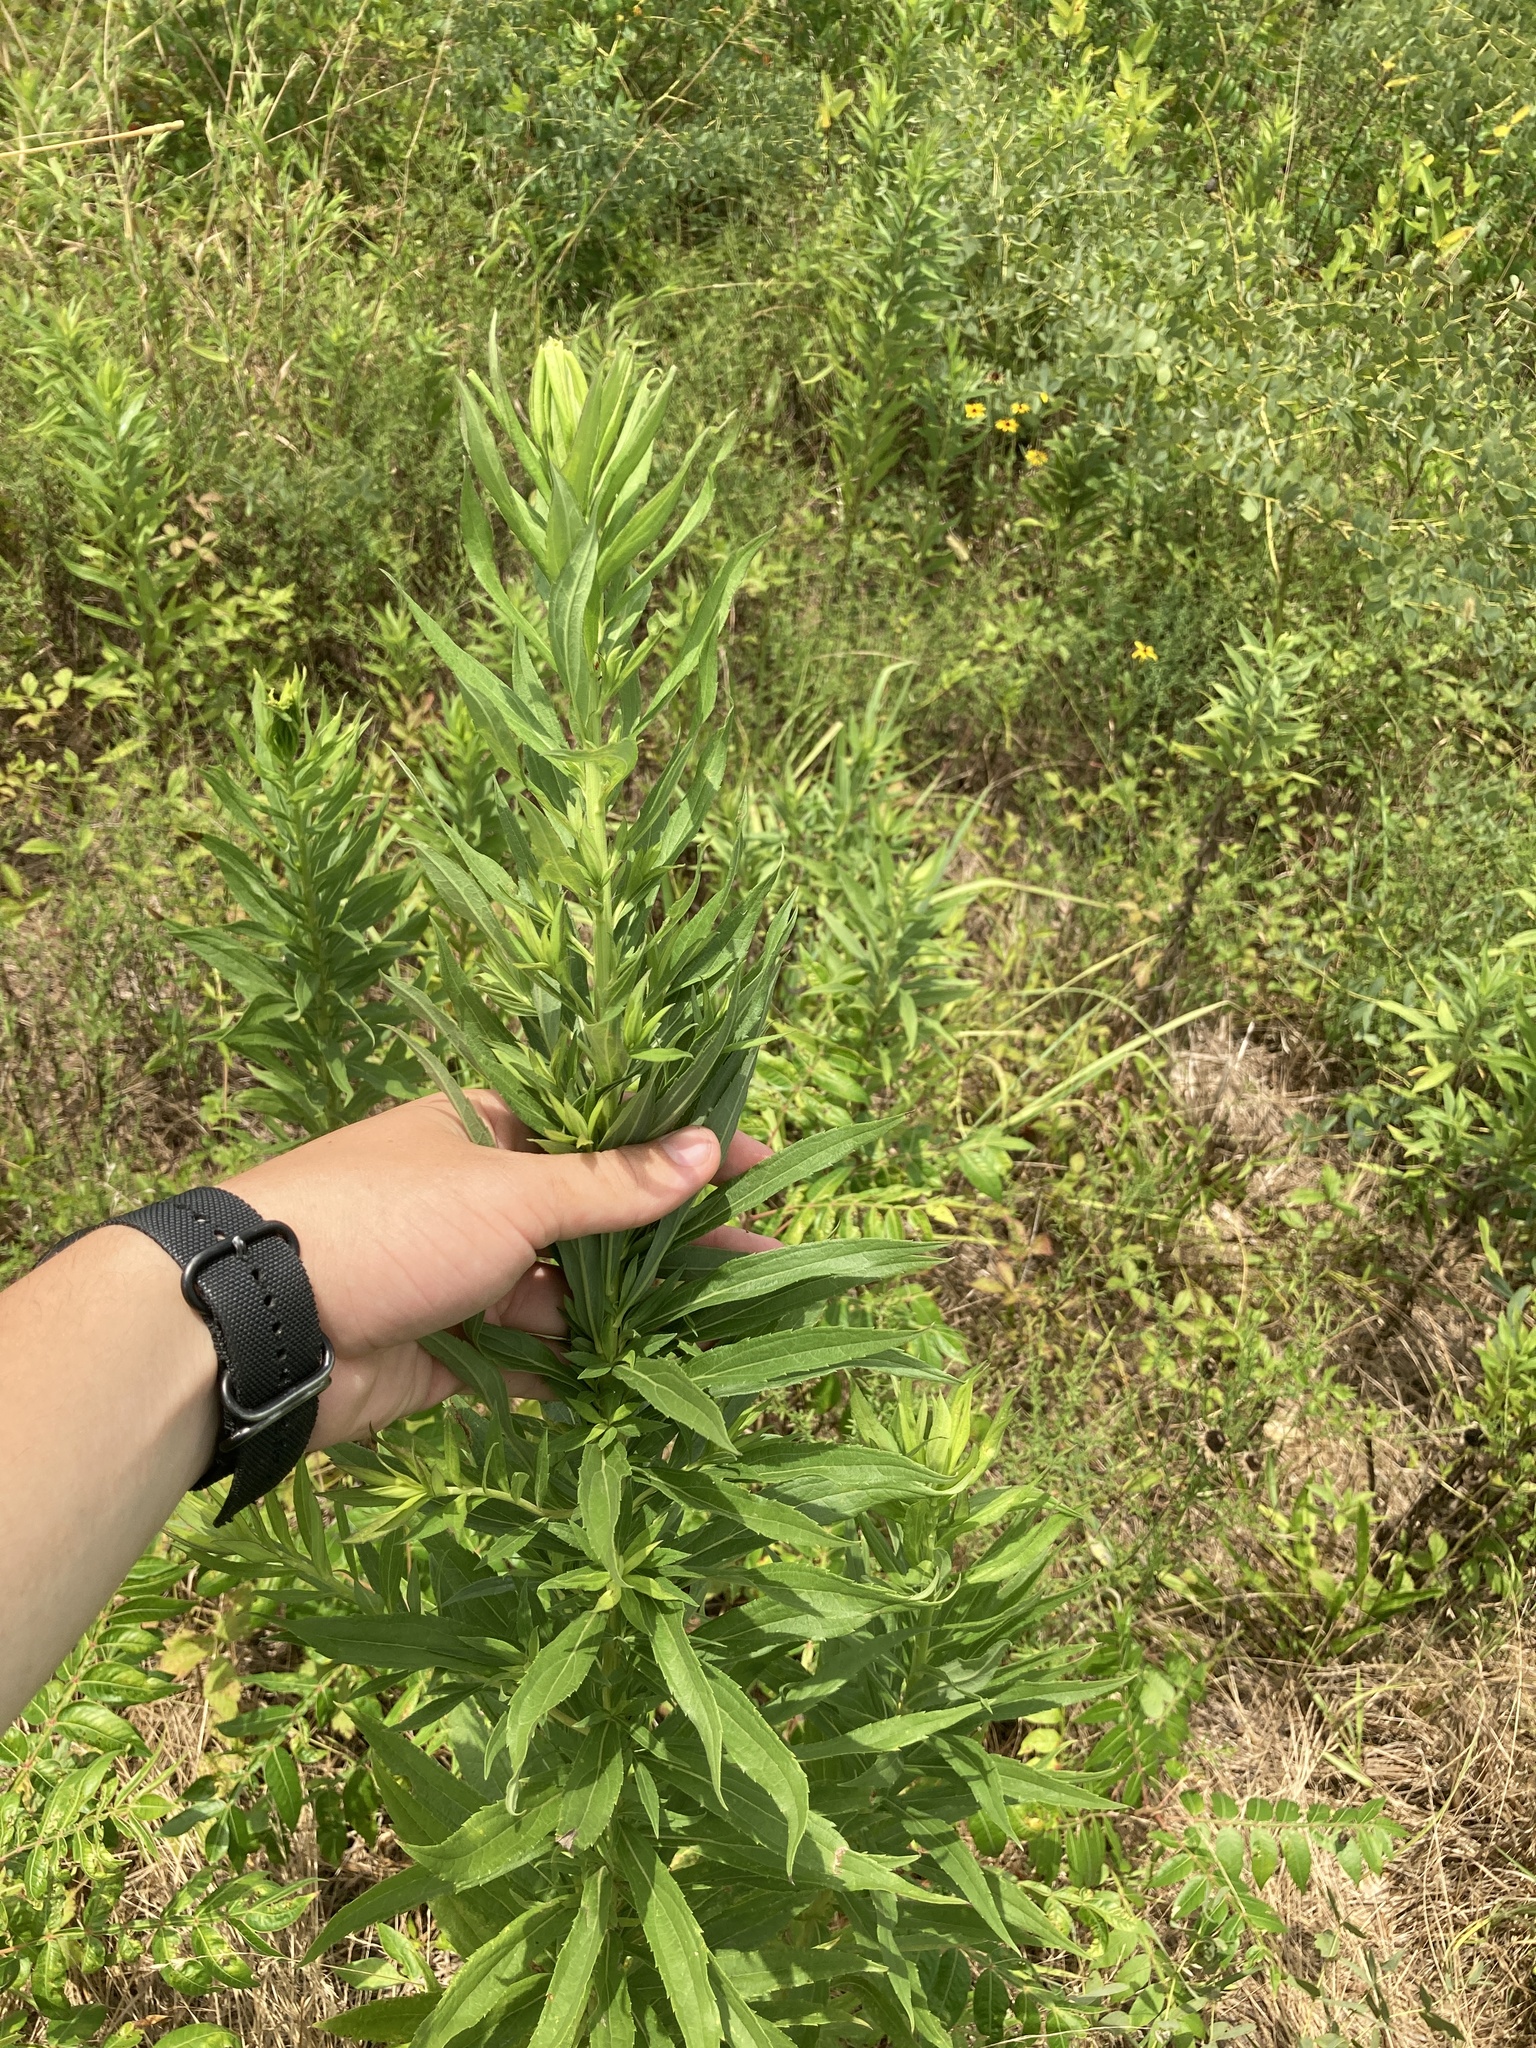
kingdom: Plantae
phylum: Tracheophyta
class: Magnoliopsida
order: Asterales
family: Asteraceae
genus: Solidago
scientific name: Solidago altissima
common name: Late goldenrod
